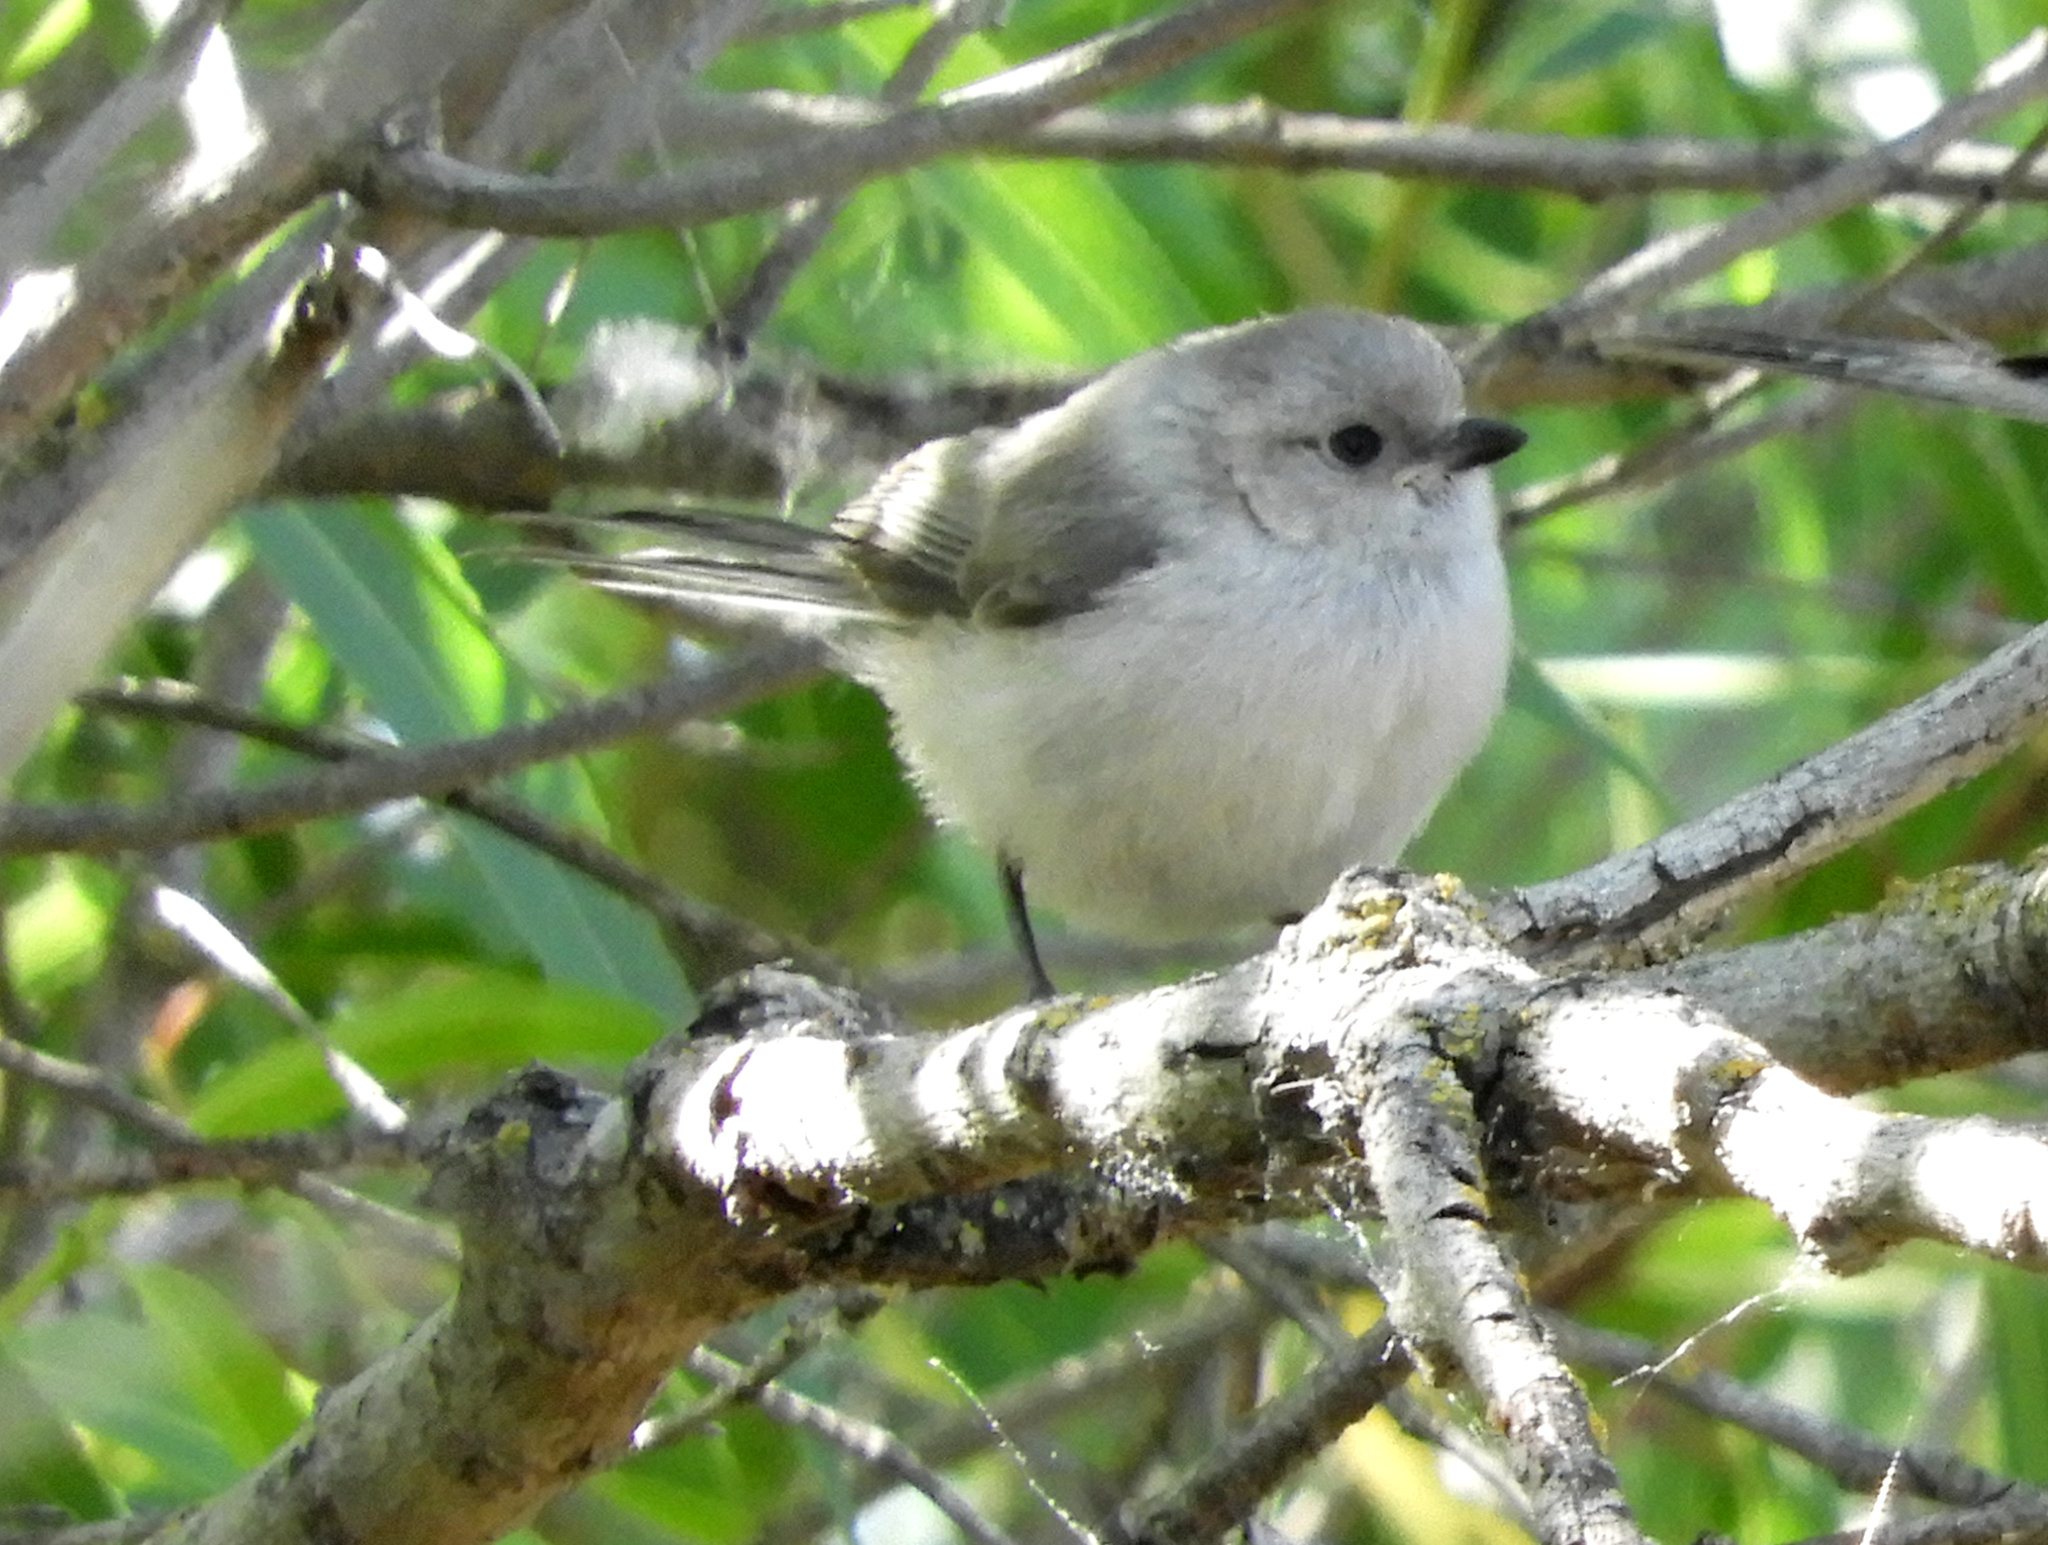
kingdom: Animalia
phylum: Chordata
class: Aves
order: Passeriformes
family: Aegithalidae
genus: Psaltriparus
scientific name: Psaltriparus minimus
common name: American bushtit
